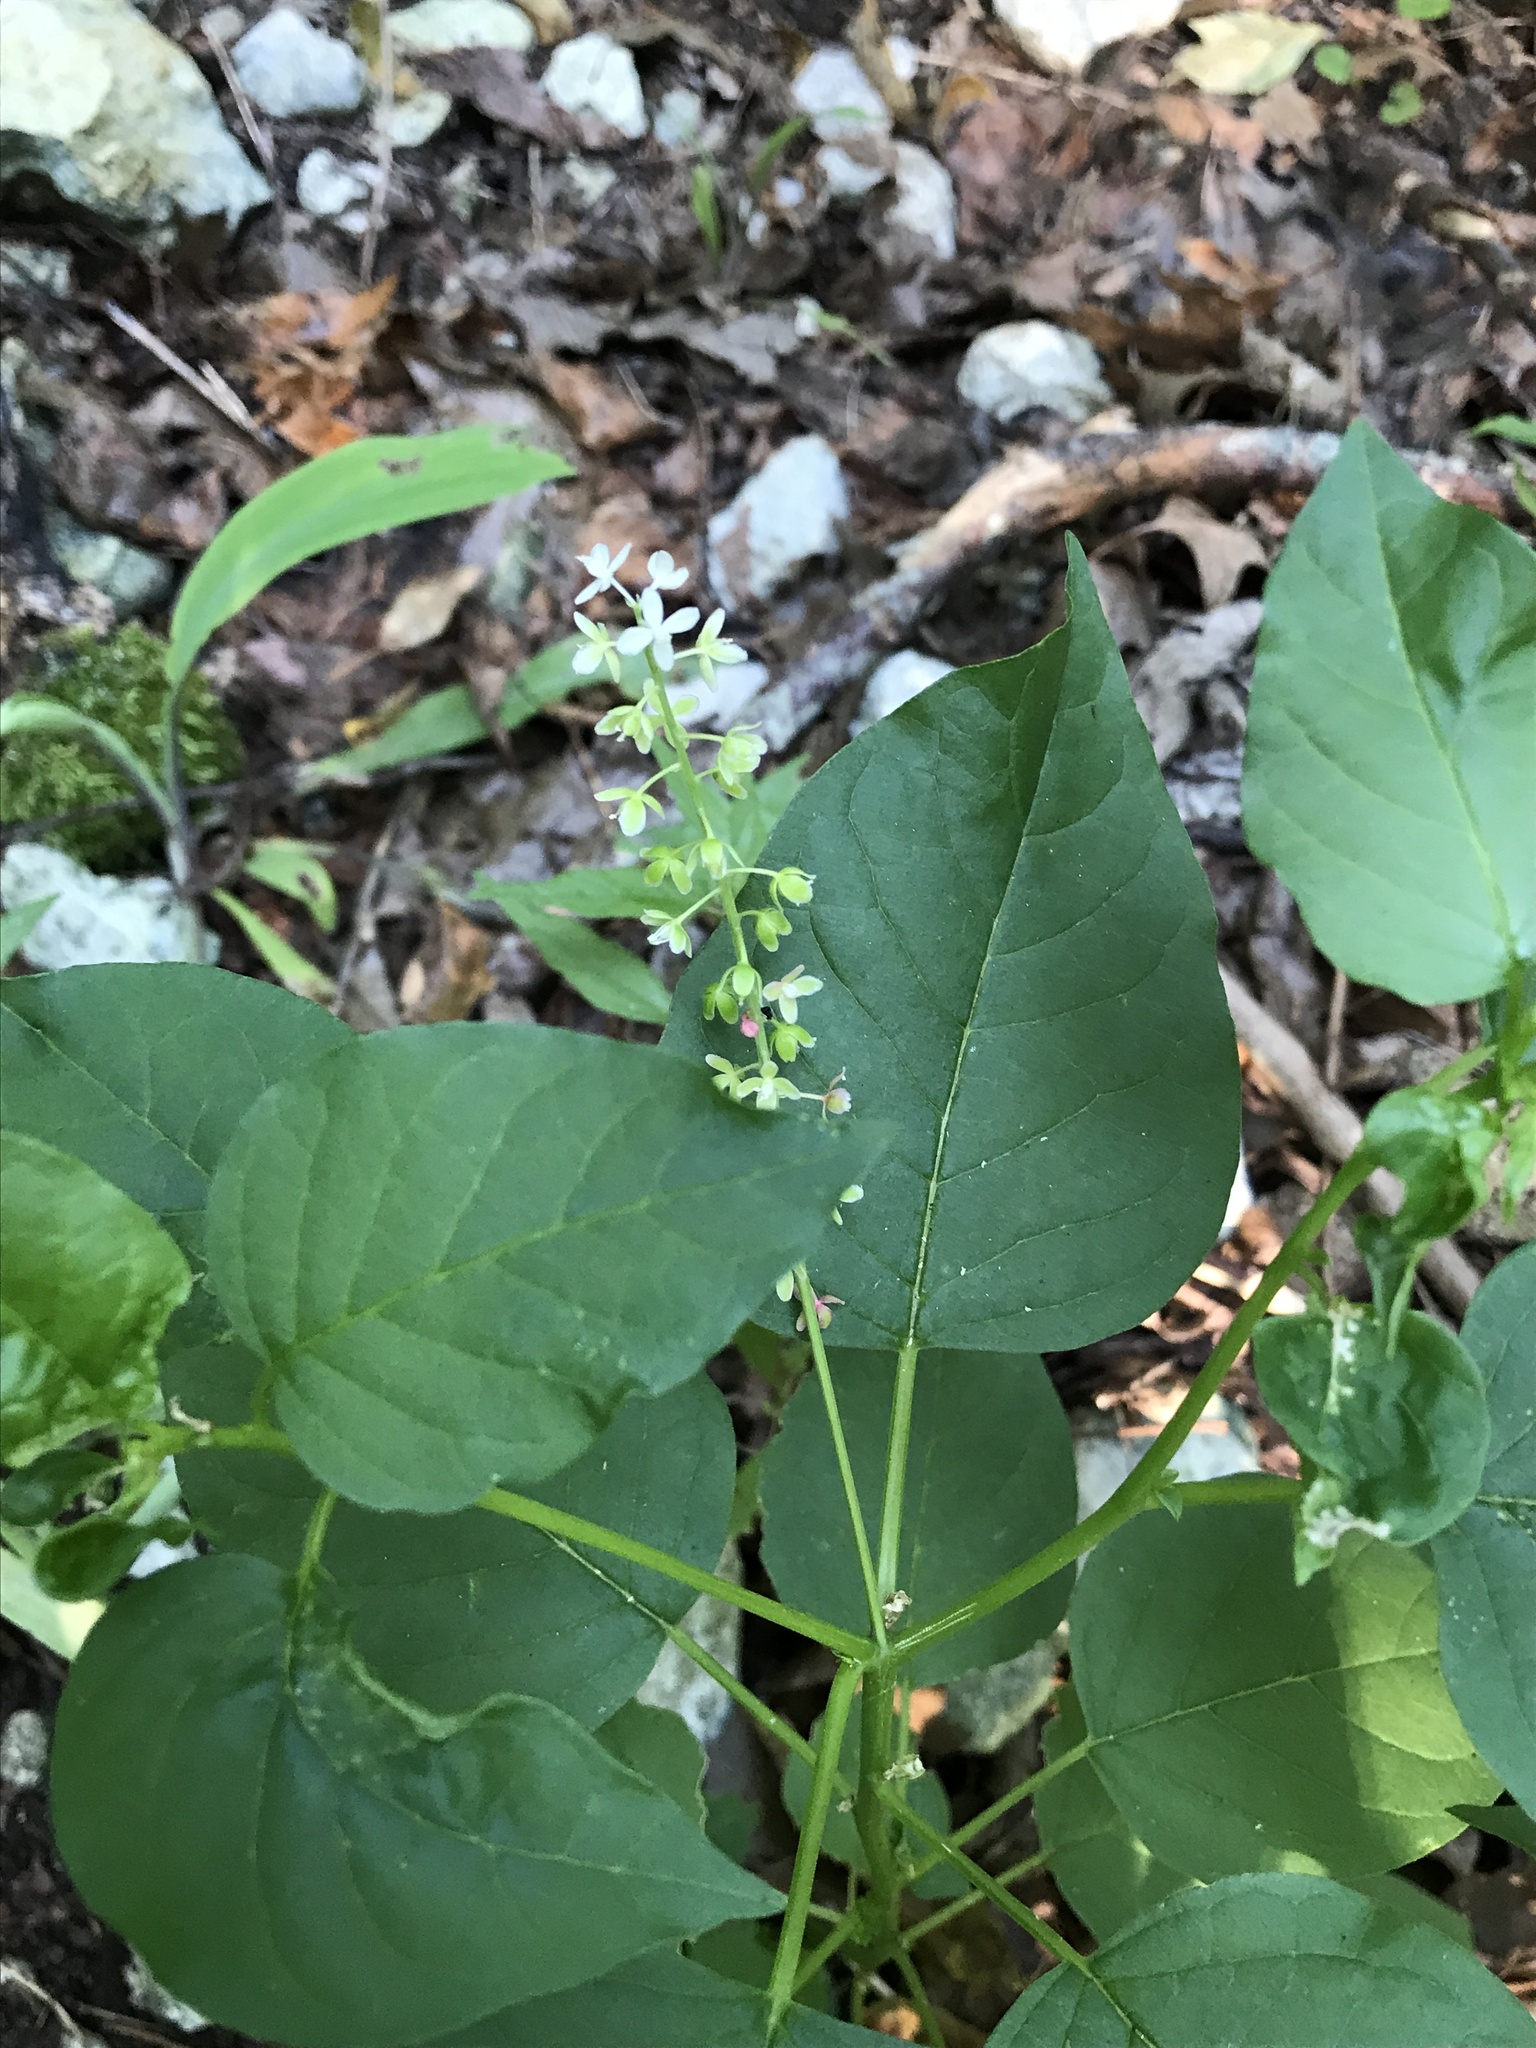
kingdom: Plantae
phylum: Tracheophyta
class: Magnoliopsida
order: Caryophyllales
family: Phytolaccaceae
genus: Rivina
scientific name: Rivina humilis
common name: Rougeplant
